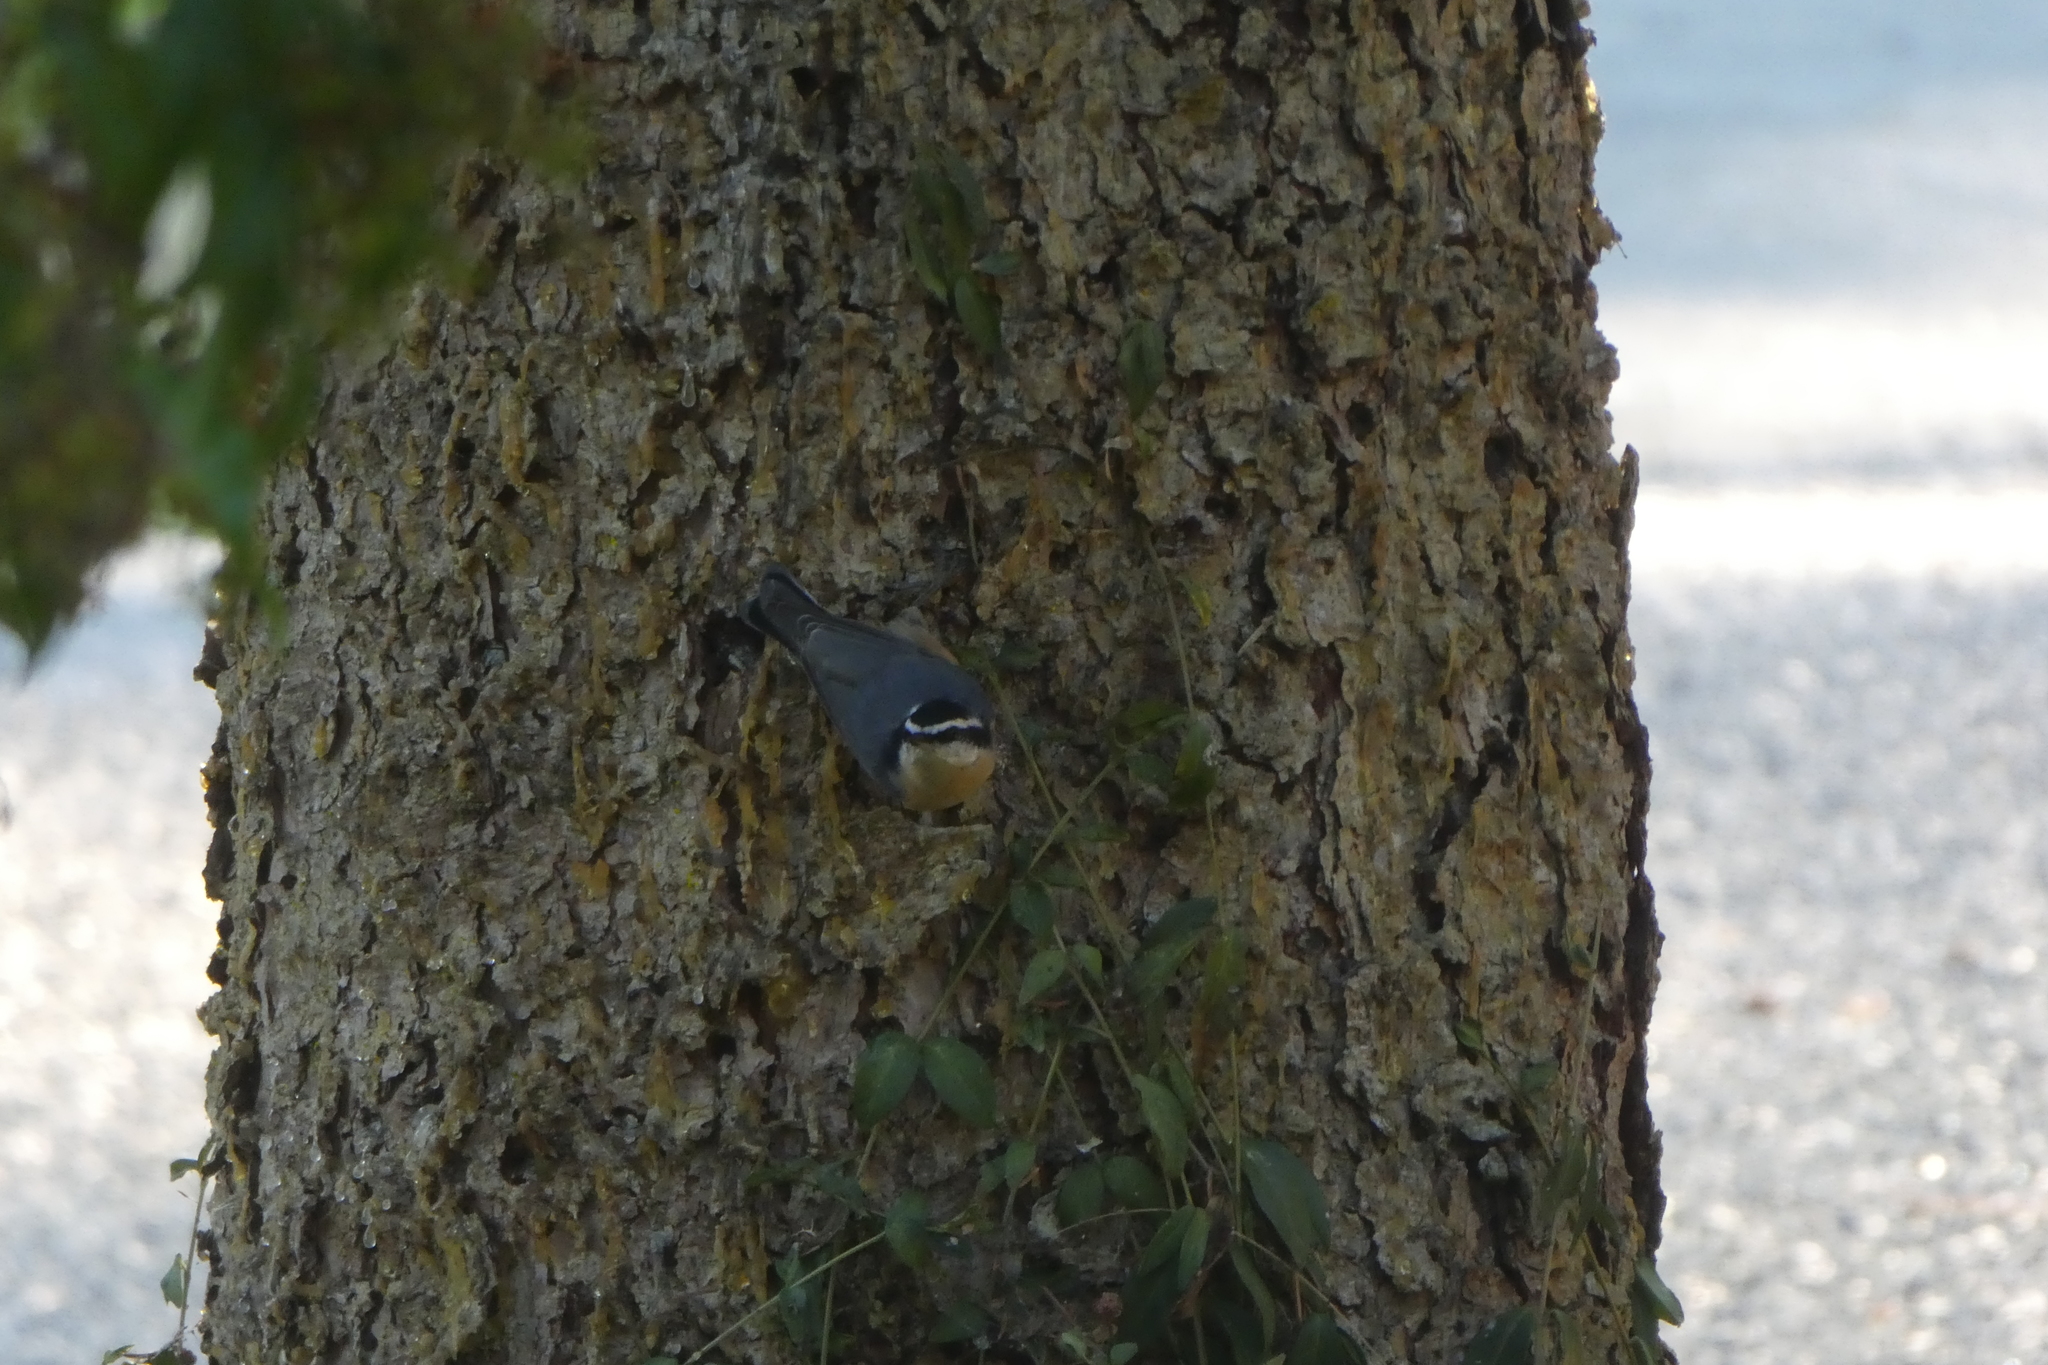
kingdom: Animalia
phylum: Chordata
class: Aves
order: Passeriformes
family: Sittidae
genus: Sitta
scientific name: Sitta canadensis
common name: Red-breasted nuthatch
